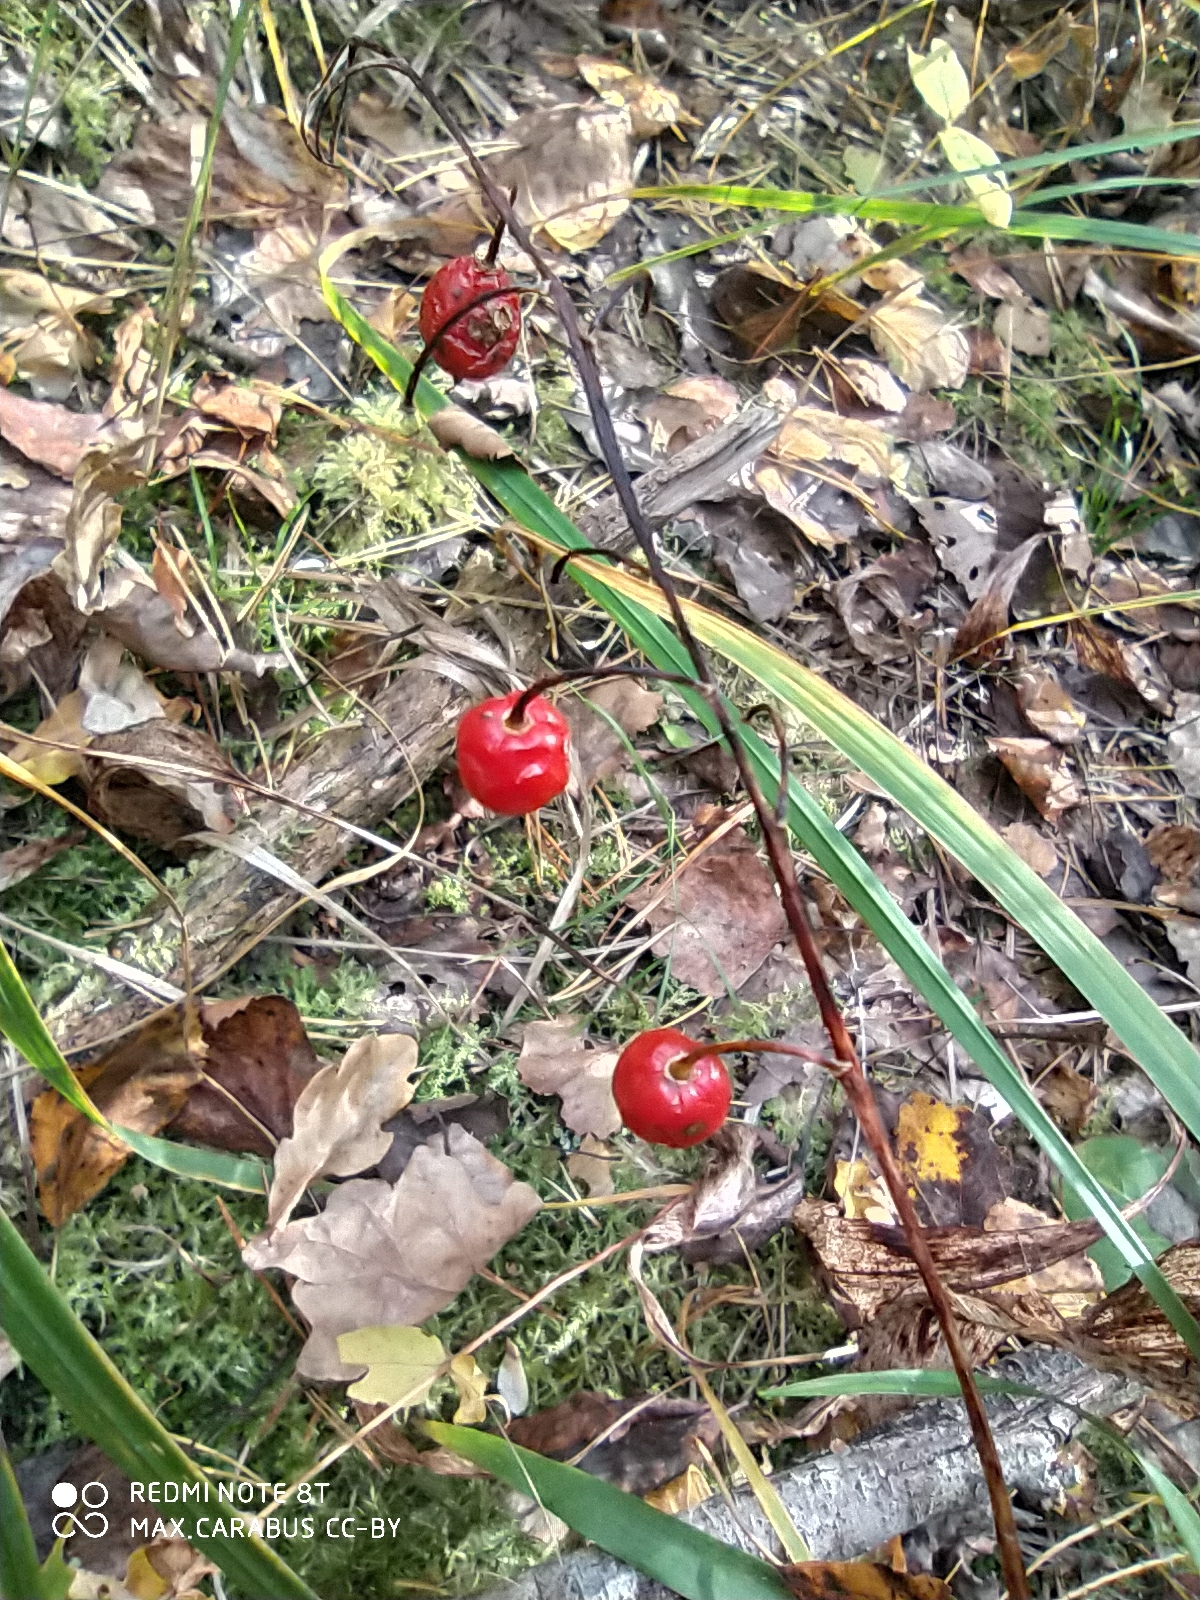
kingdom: Plantae
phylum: Tracheophyta
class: Liliopsida
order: Asparagales
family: Asparagaceae
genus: Convallaria
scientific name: Convallaria majalis
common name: Lily-of-the-valley
